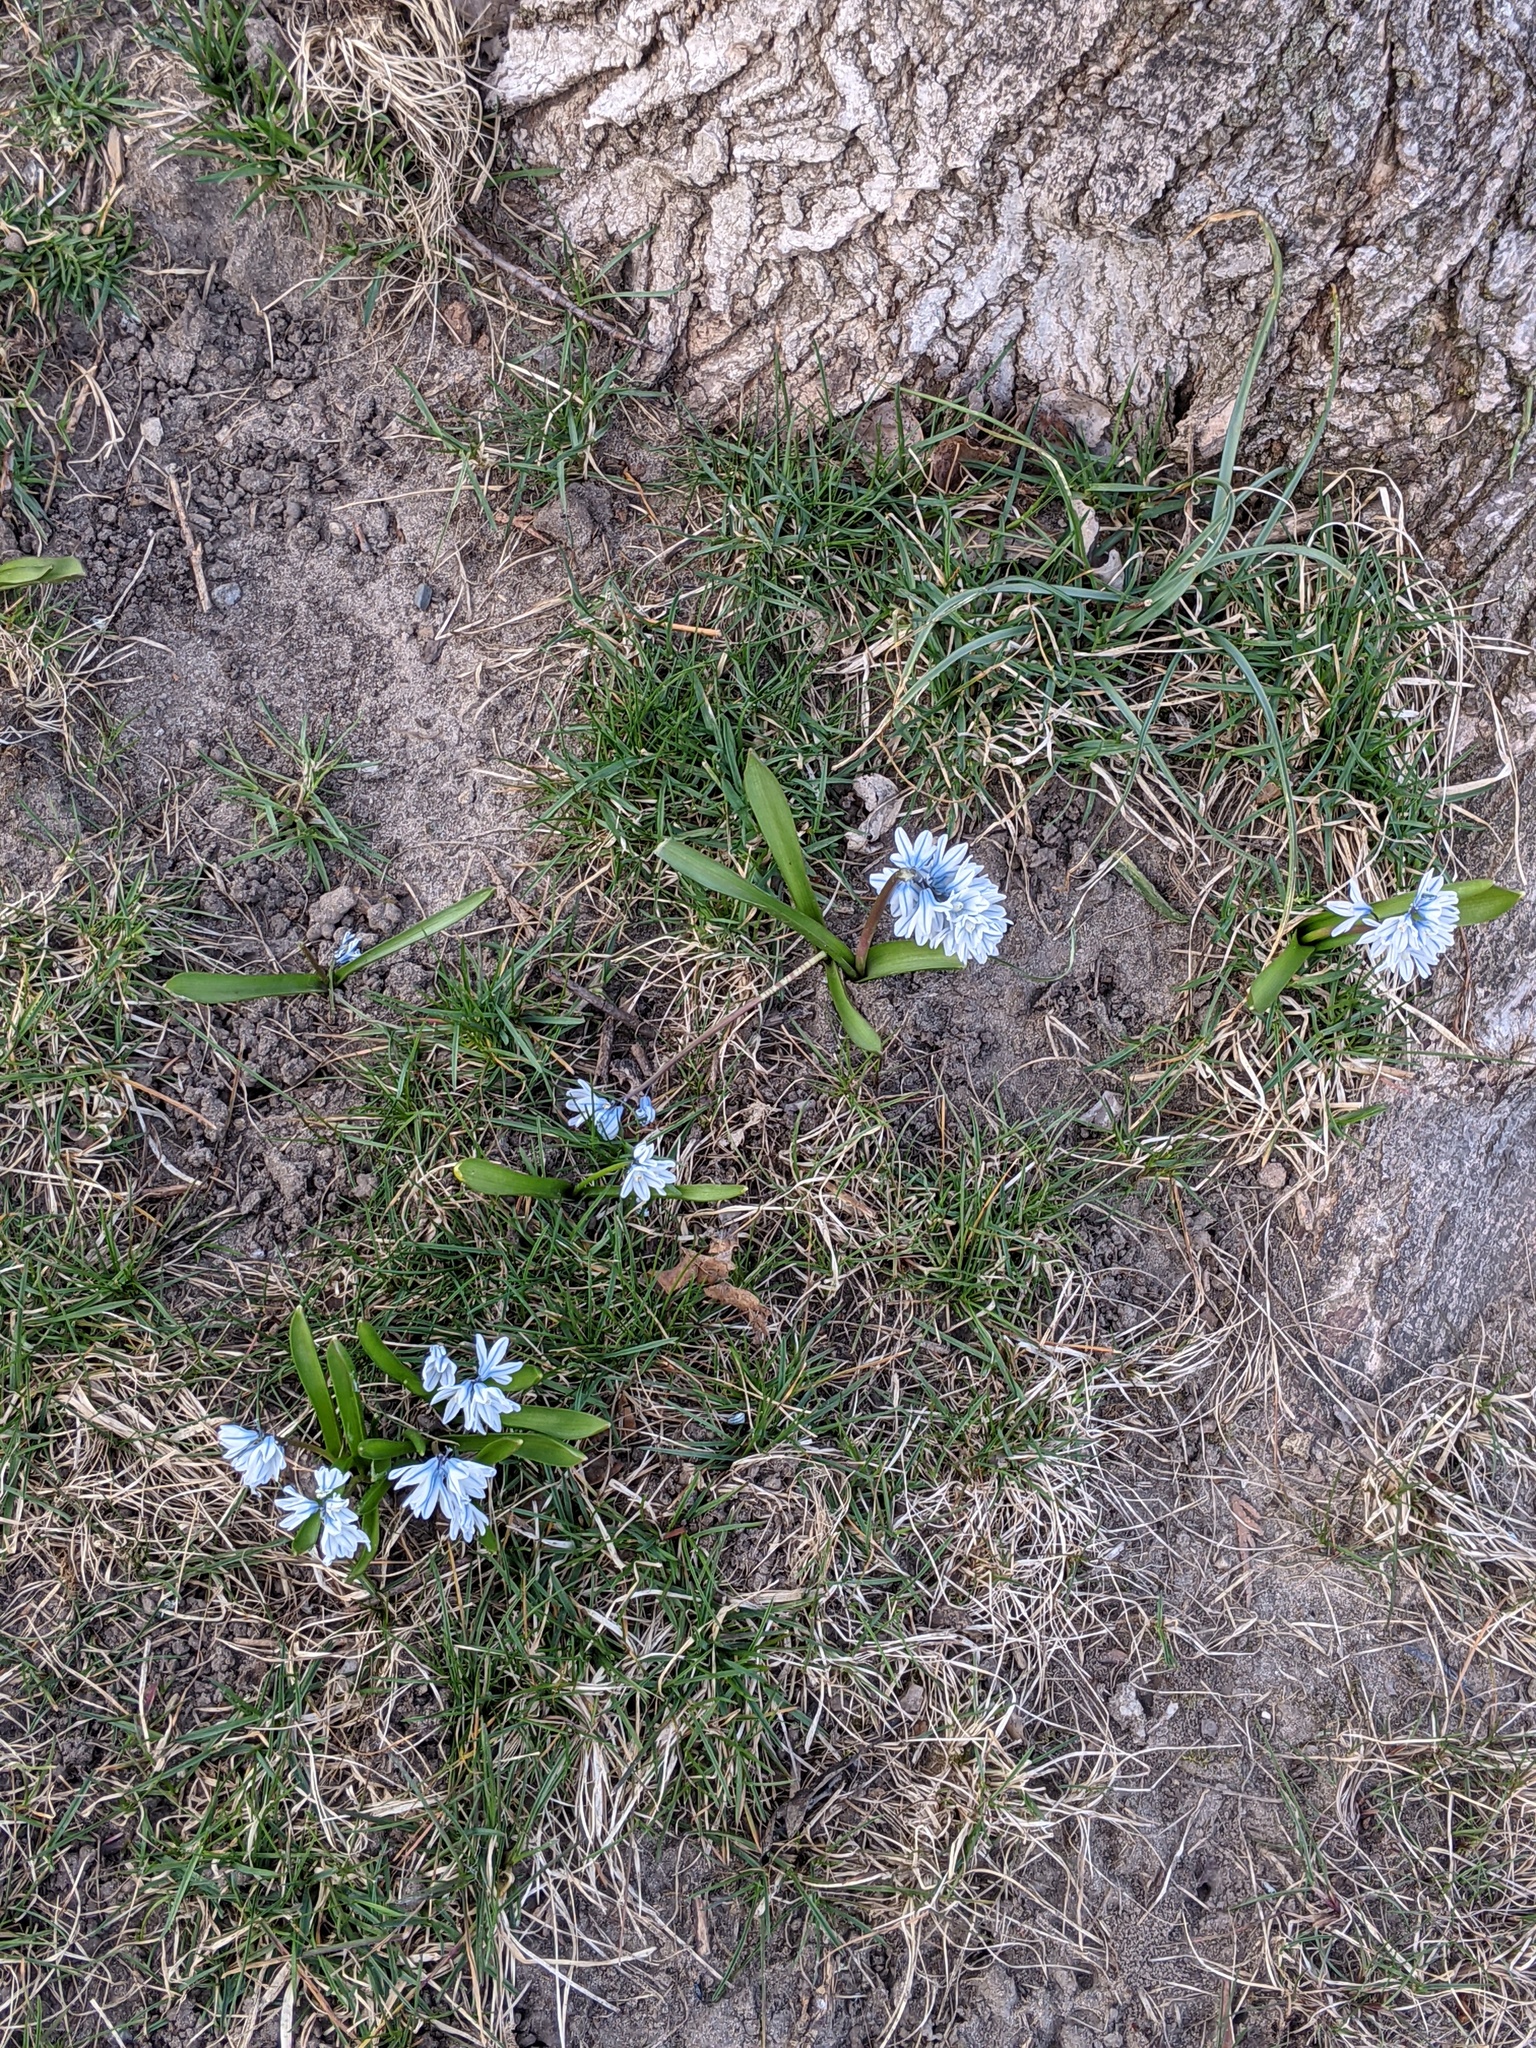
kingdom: Plantae
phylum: Tracheophyta
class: Liliopsida
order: Asparagales
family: Asparagaceae
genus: Puschkinia
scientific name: Puschkinia scilloides
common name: Striped squill
